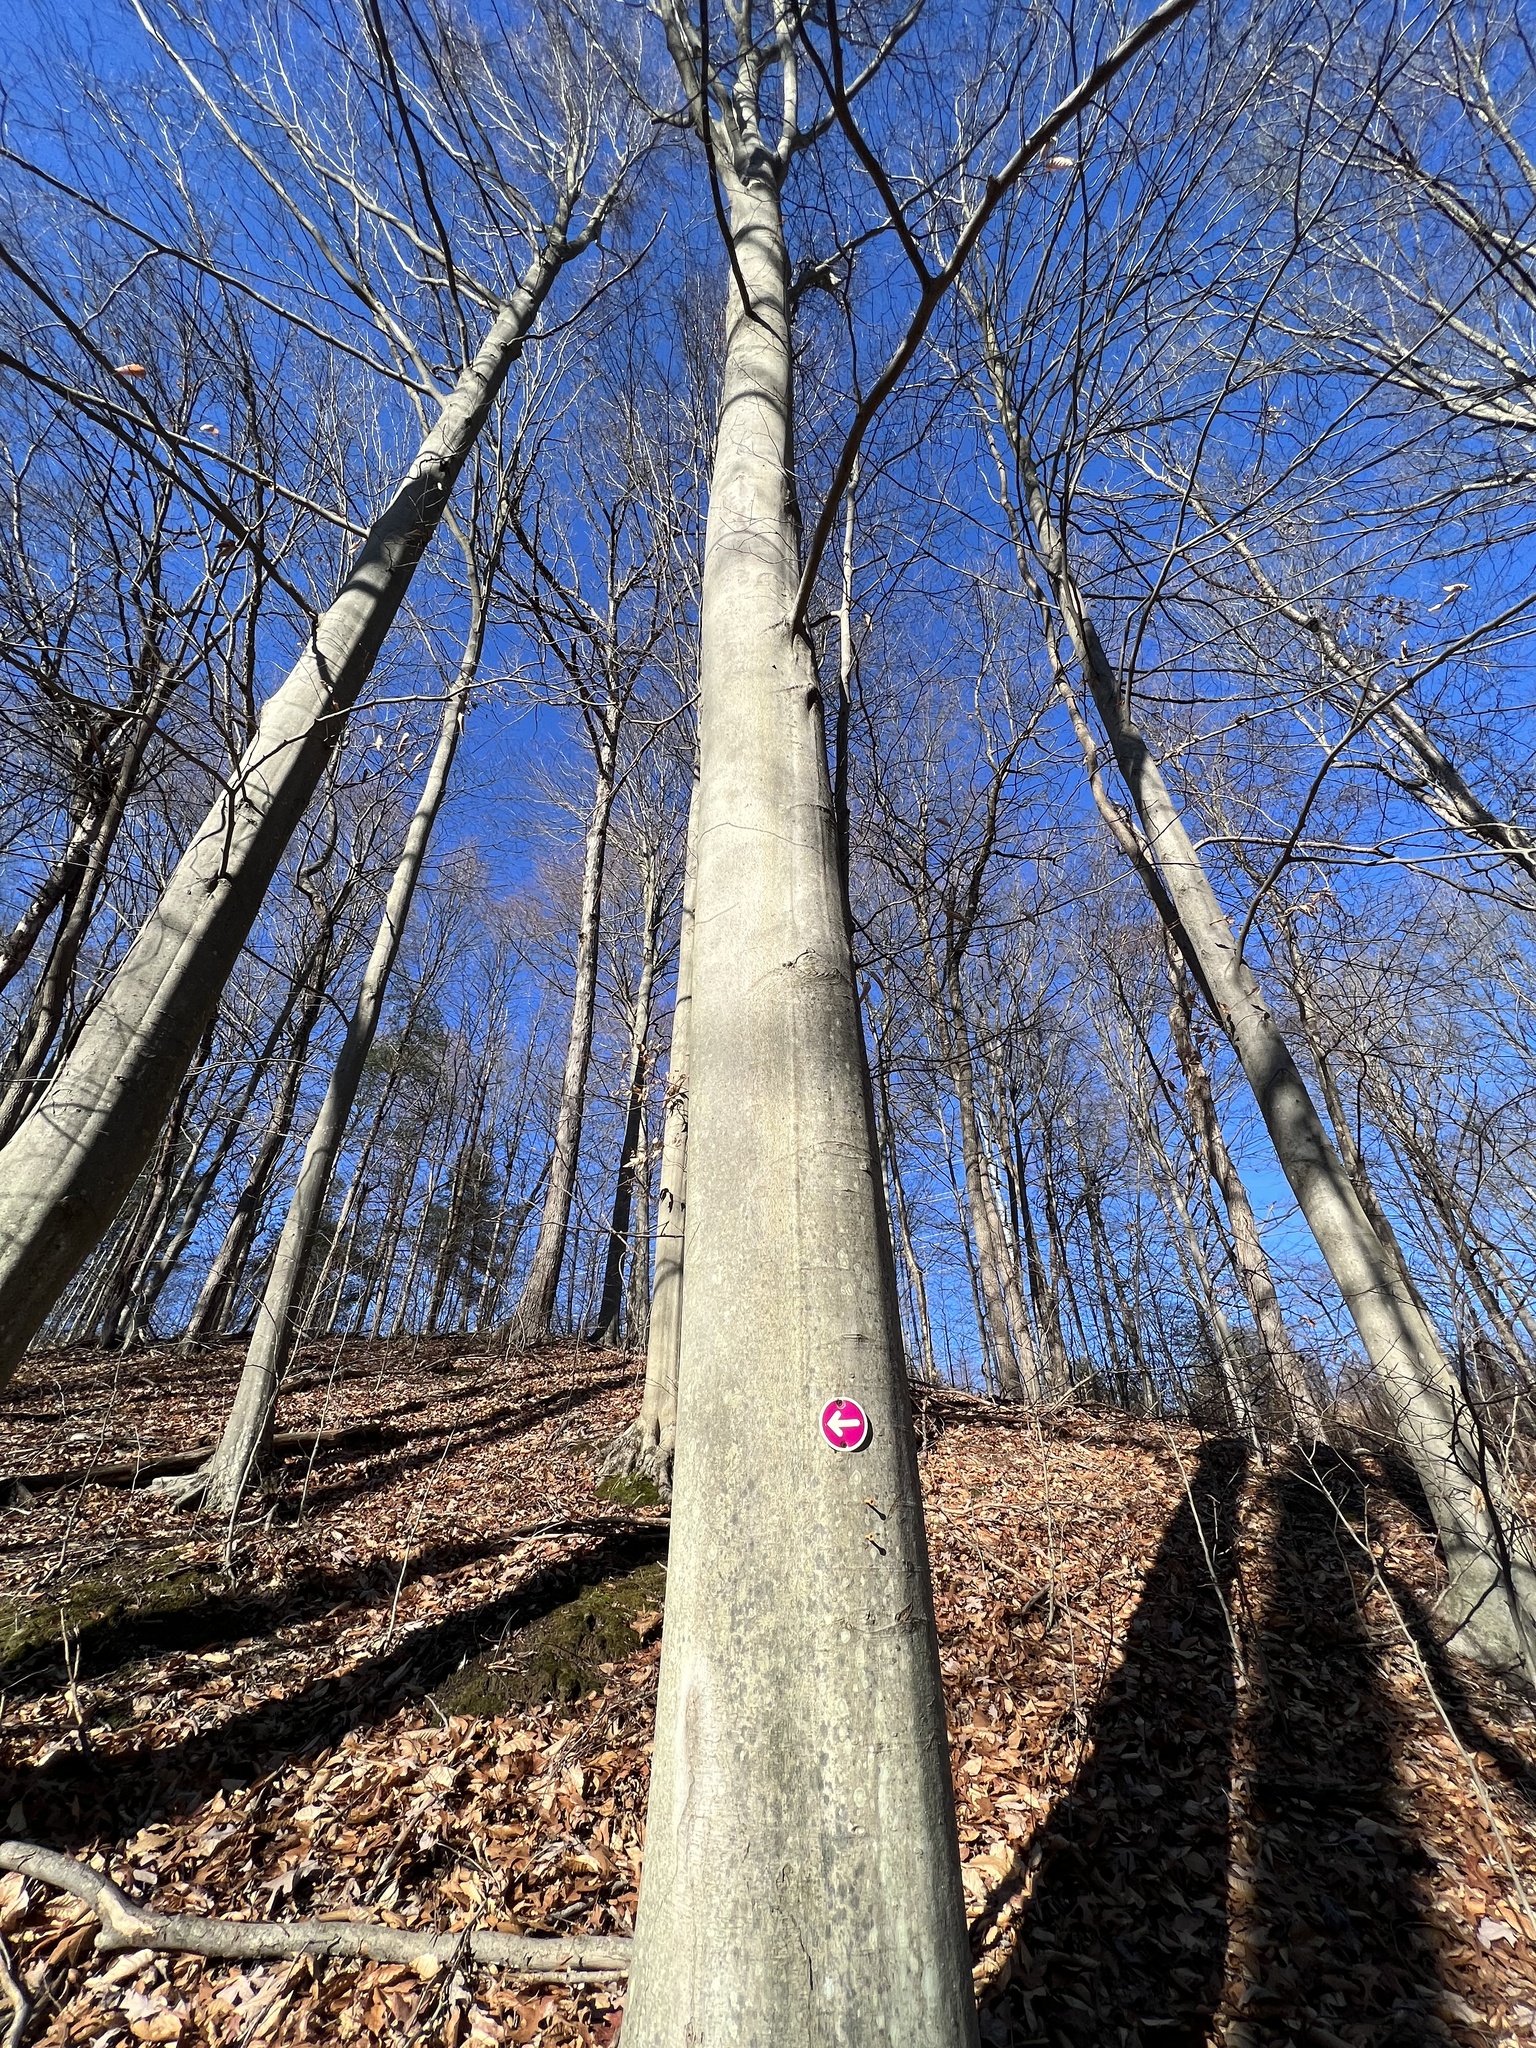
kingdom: Plantae
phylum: Tracheophyta
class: Magnoliopsida
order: Fagales
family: Fagaceae
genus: Fagus
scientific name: Fagus grandifolia
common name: American beech
